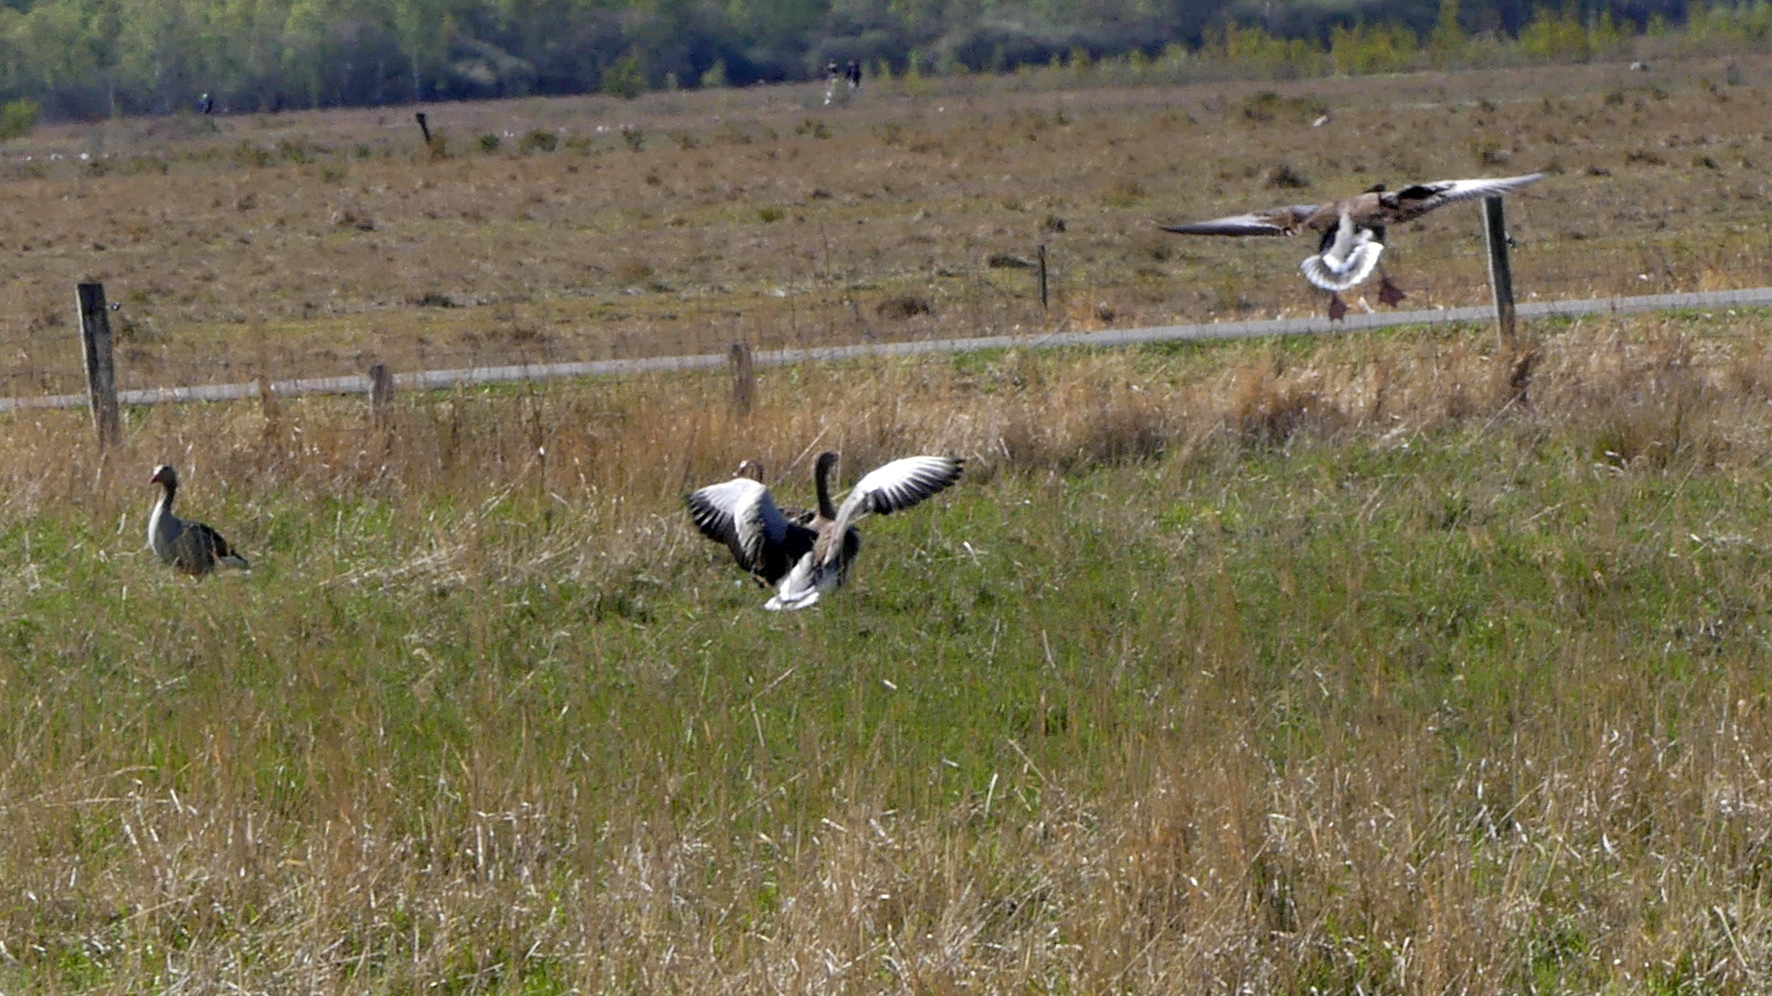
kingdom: Animalia
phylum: Chordata
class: Aves
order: Anseriformes
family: Anatidae
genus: Anser
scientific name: Anser anser
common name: Greylag goose
